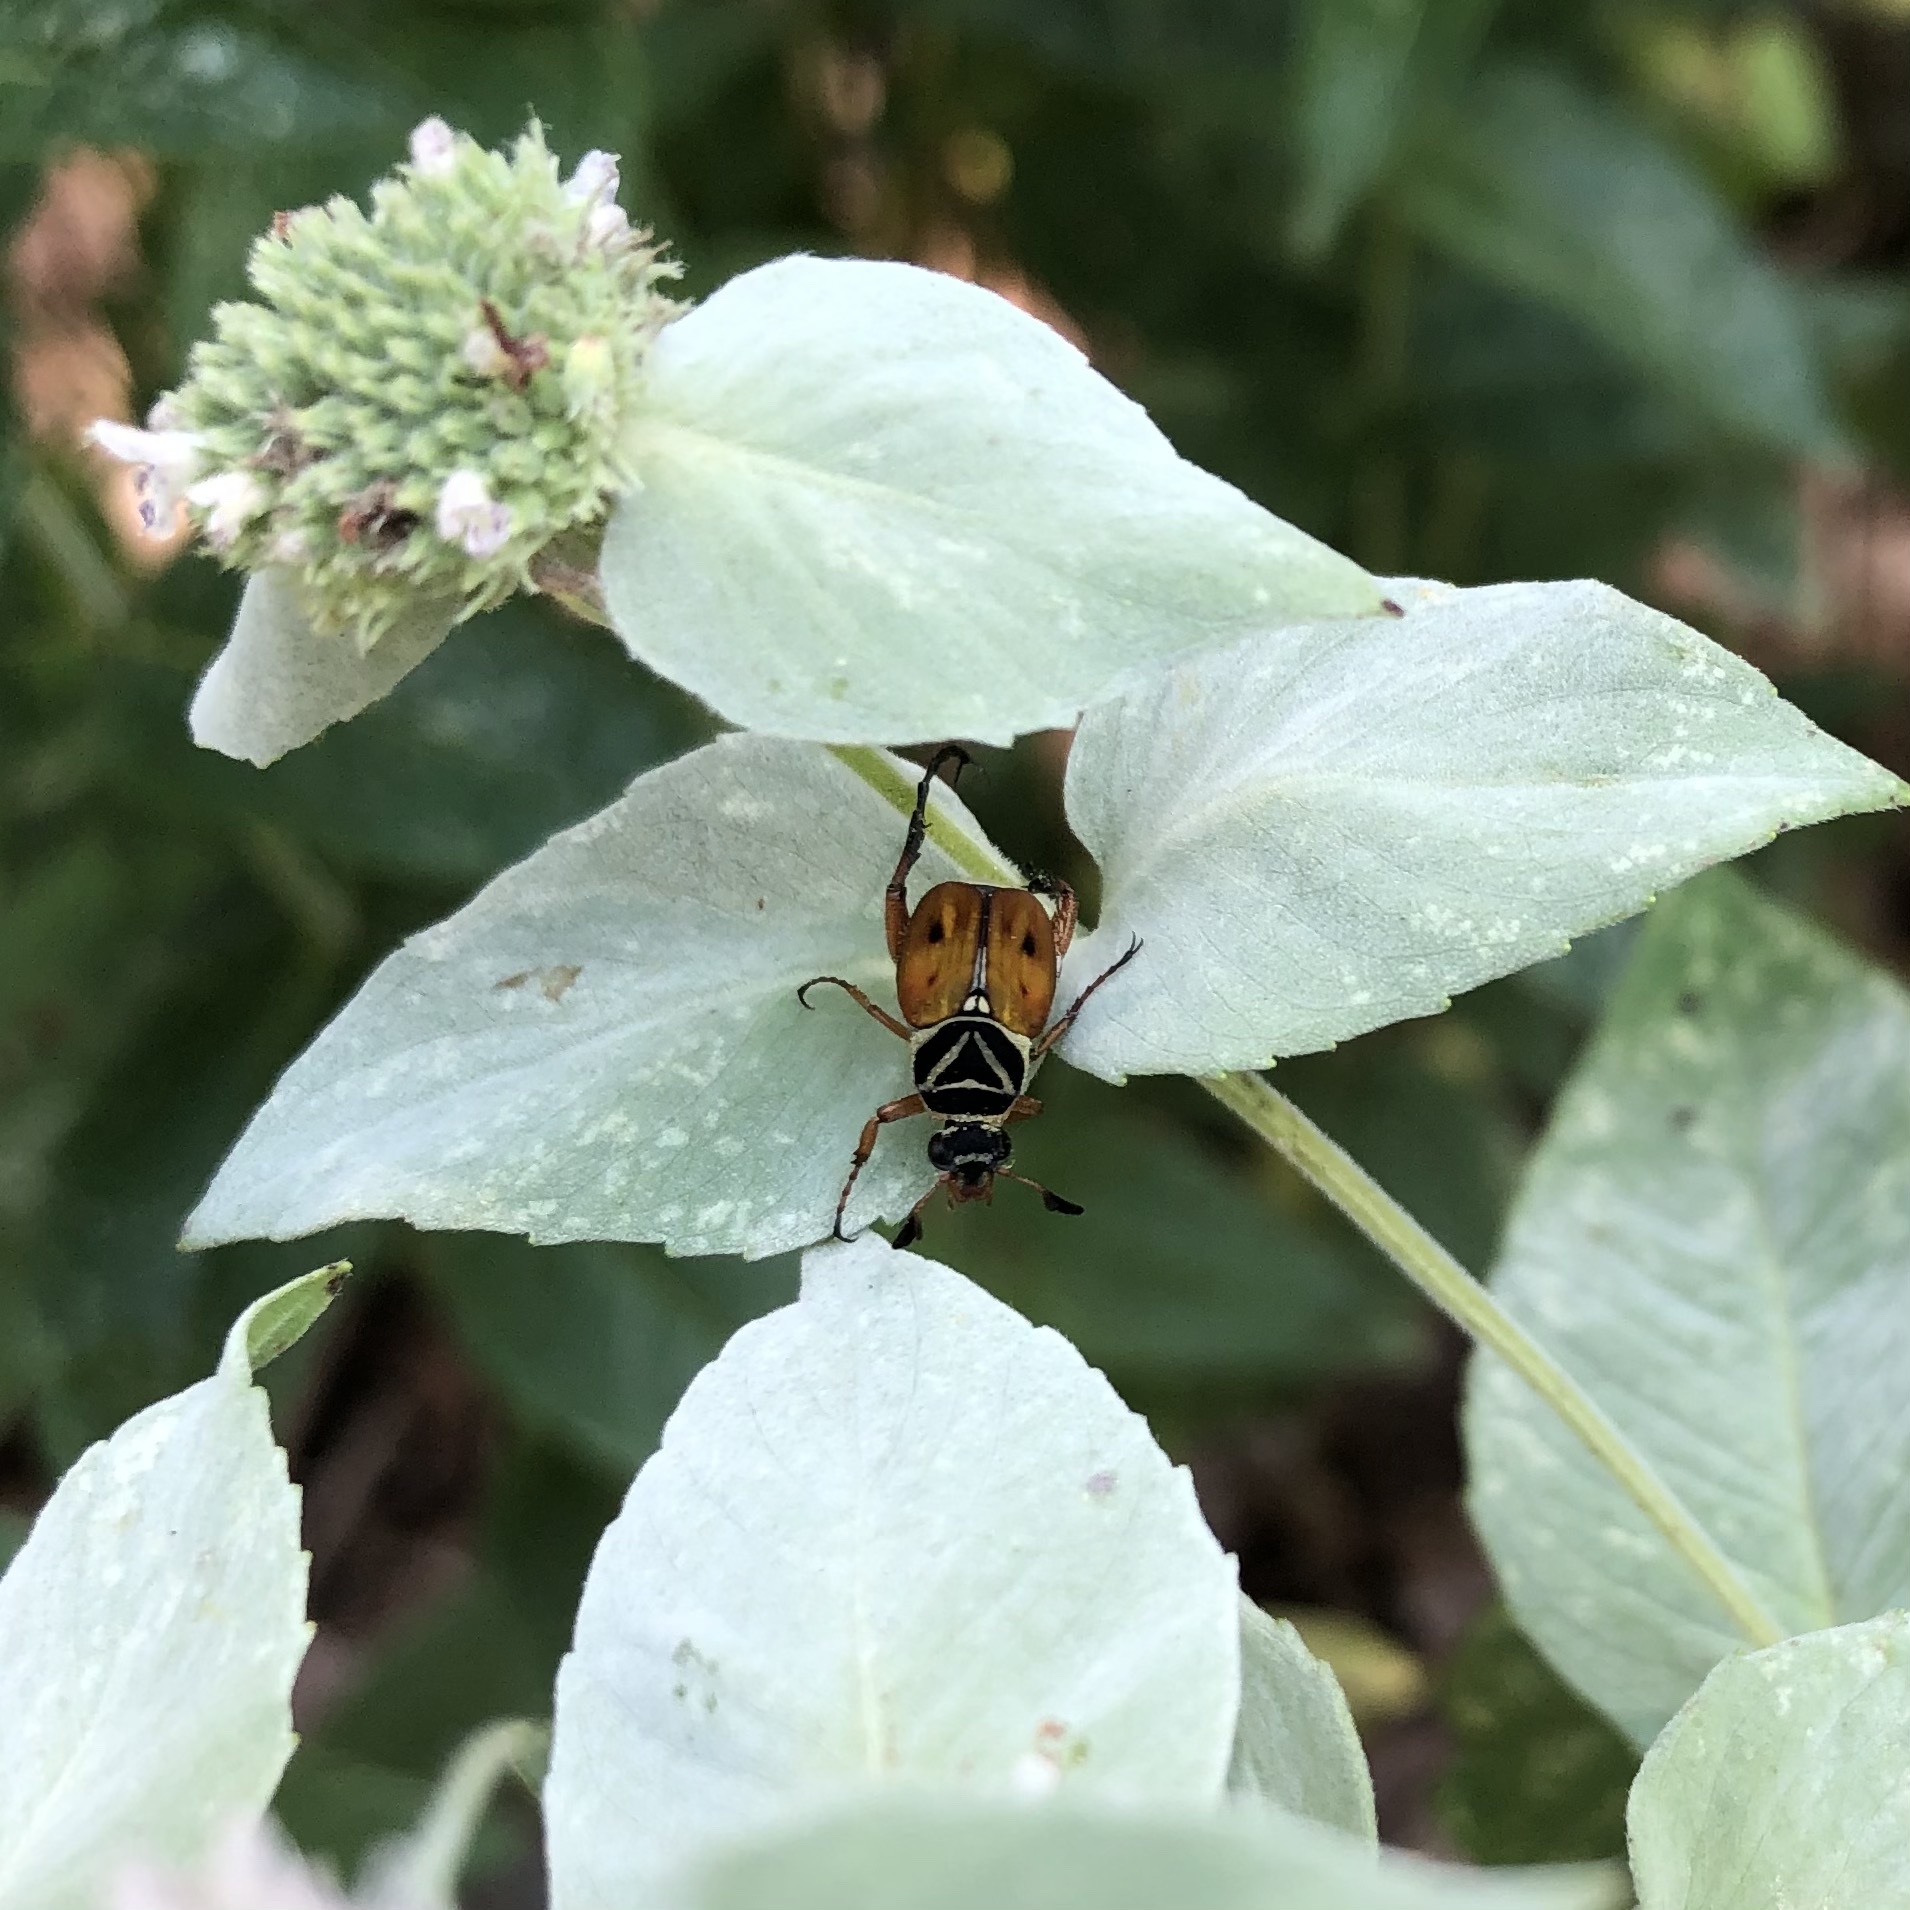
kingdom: Animalia
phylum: Arthropoda
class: Insecta
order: Coleoptera
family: Scarabaeidae
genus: Trigonopeltastes
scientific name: Trigonopeltastes delta
